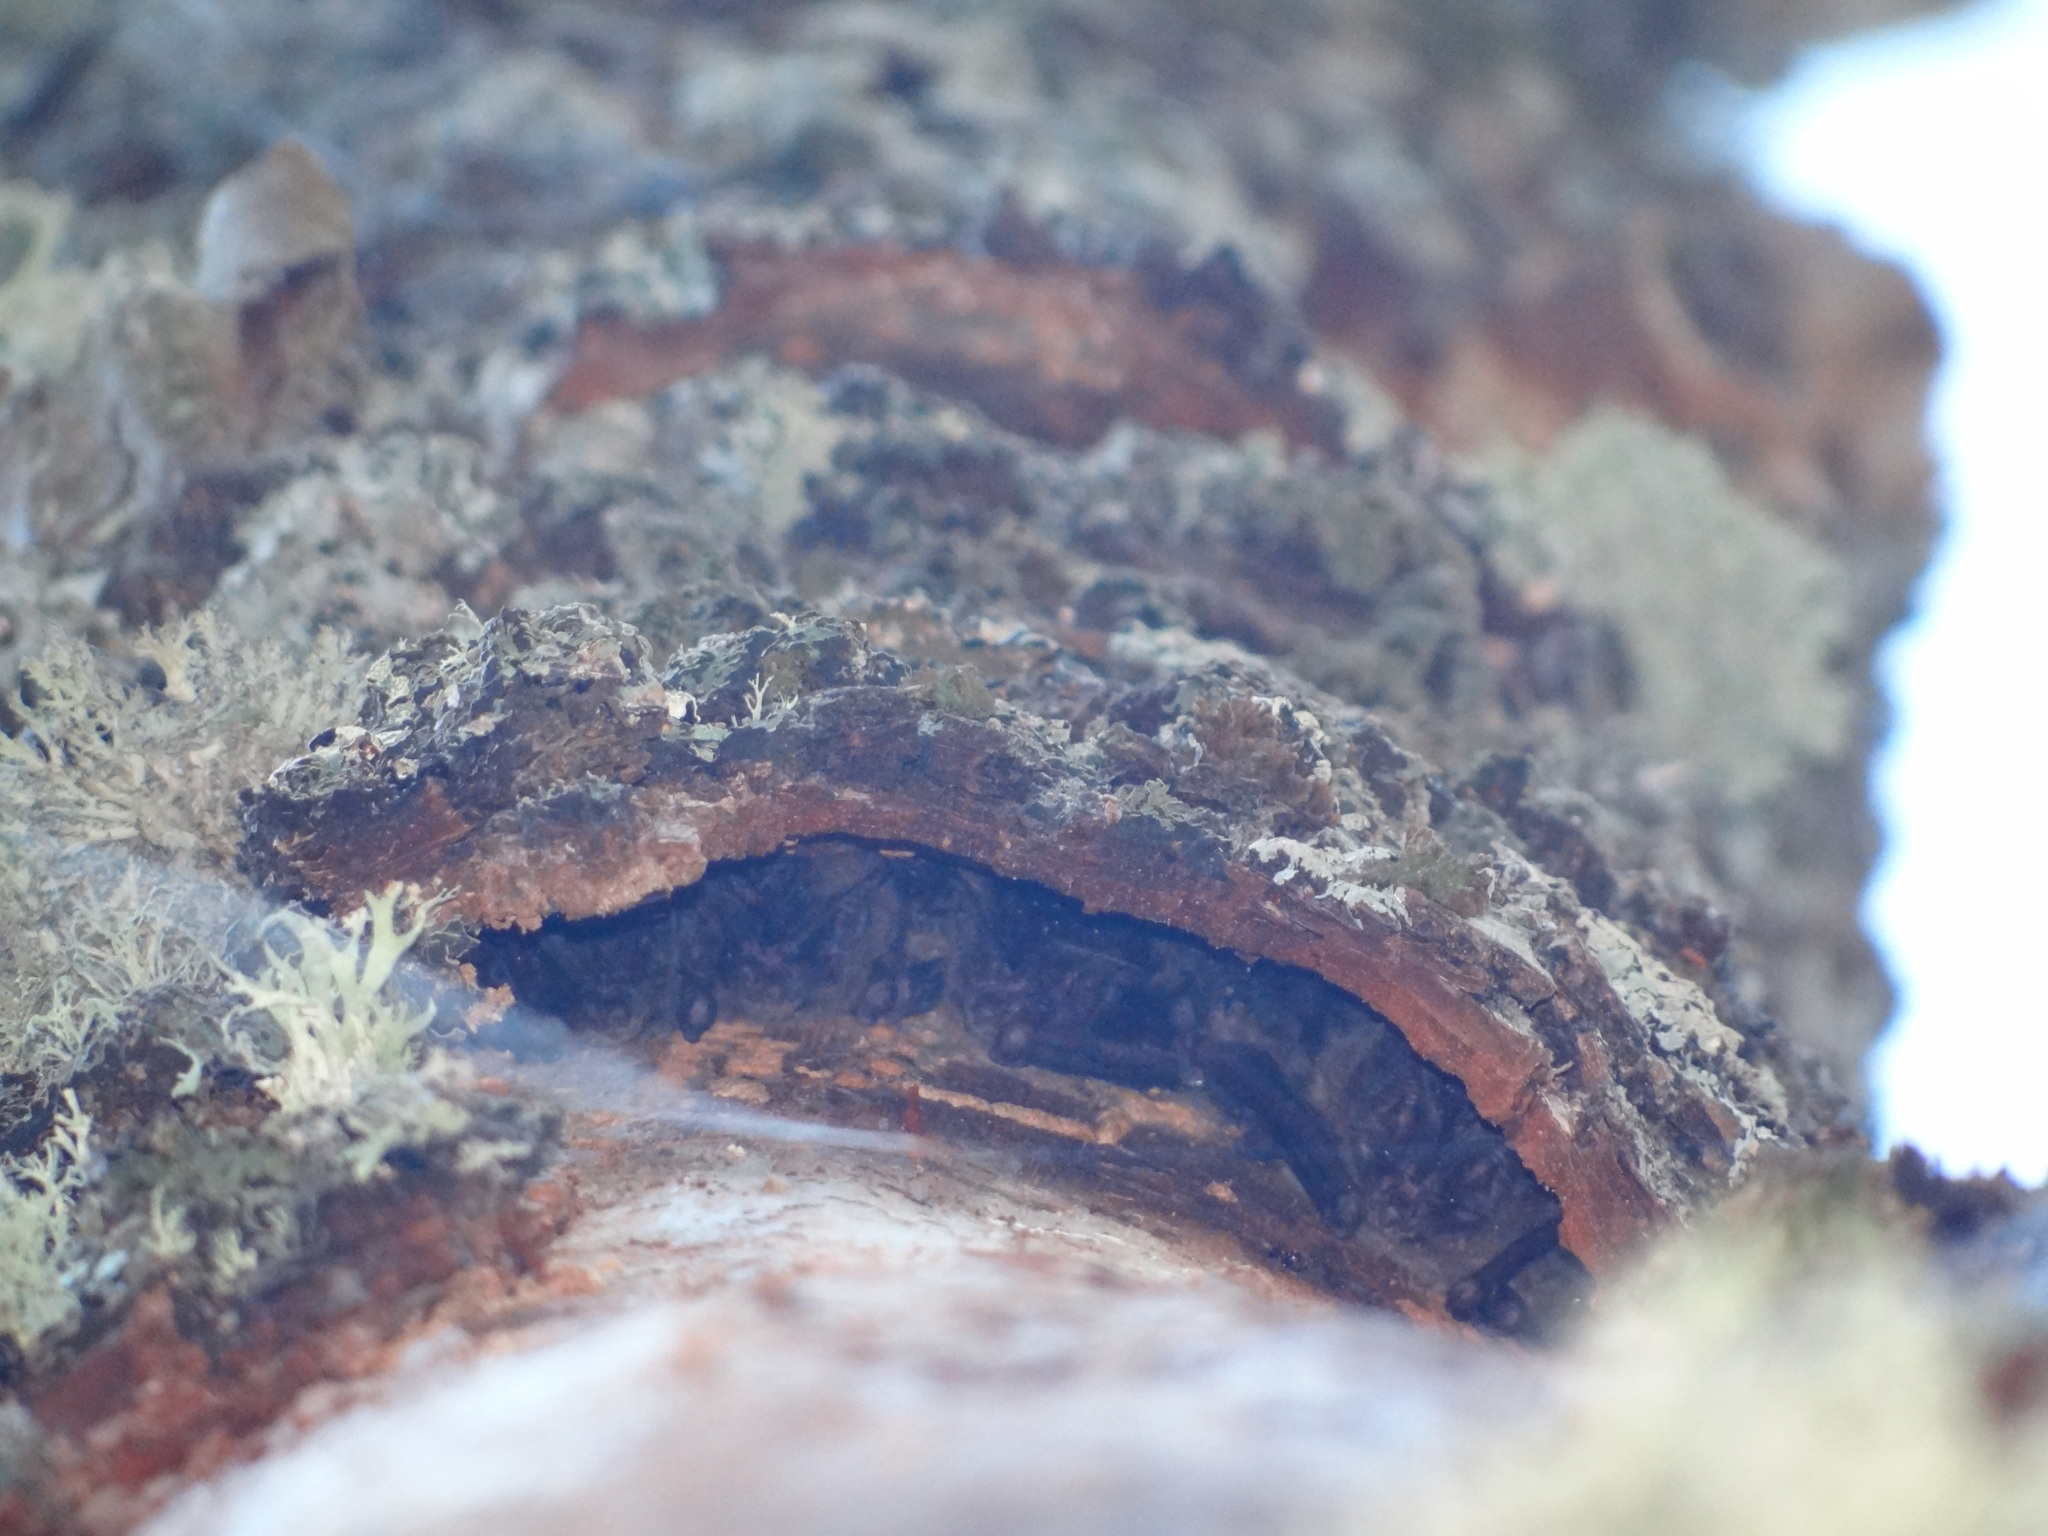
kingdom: Animalia
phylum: Chordata
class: Mammalia
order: Chiroptera
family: Vespertilionidae
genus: Barbastella
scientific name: Barbastella barbastellus
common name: Western barbastelle
